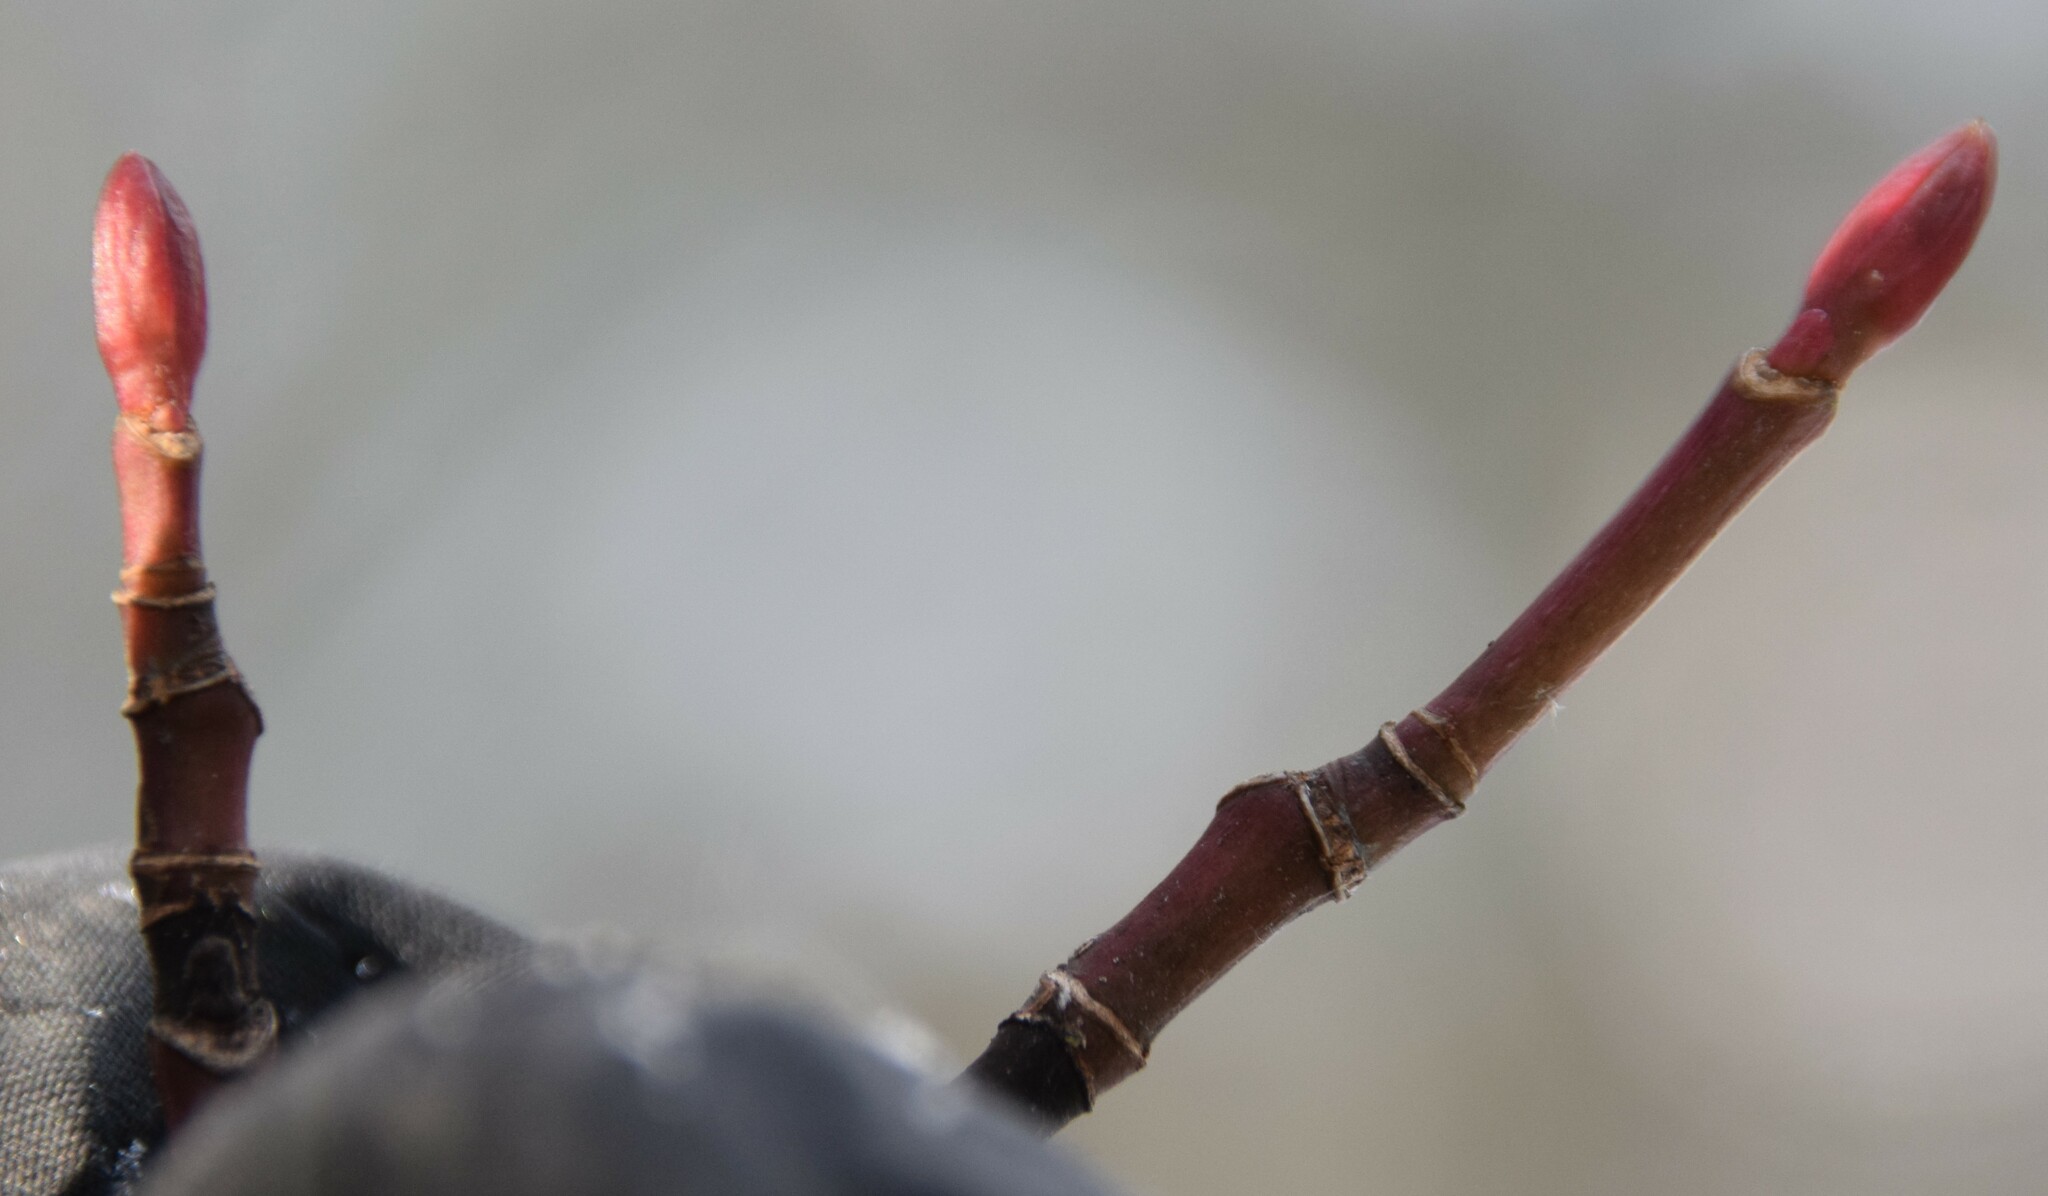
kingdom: Plantae
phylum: Tracheophyta
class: Magnoliopsida
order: Sapindales
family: Sapindaceae
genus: Acer
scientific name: Acer pensylvanicum
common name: Moosewood
